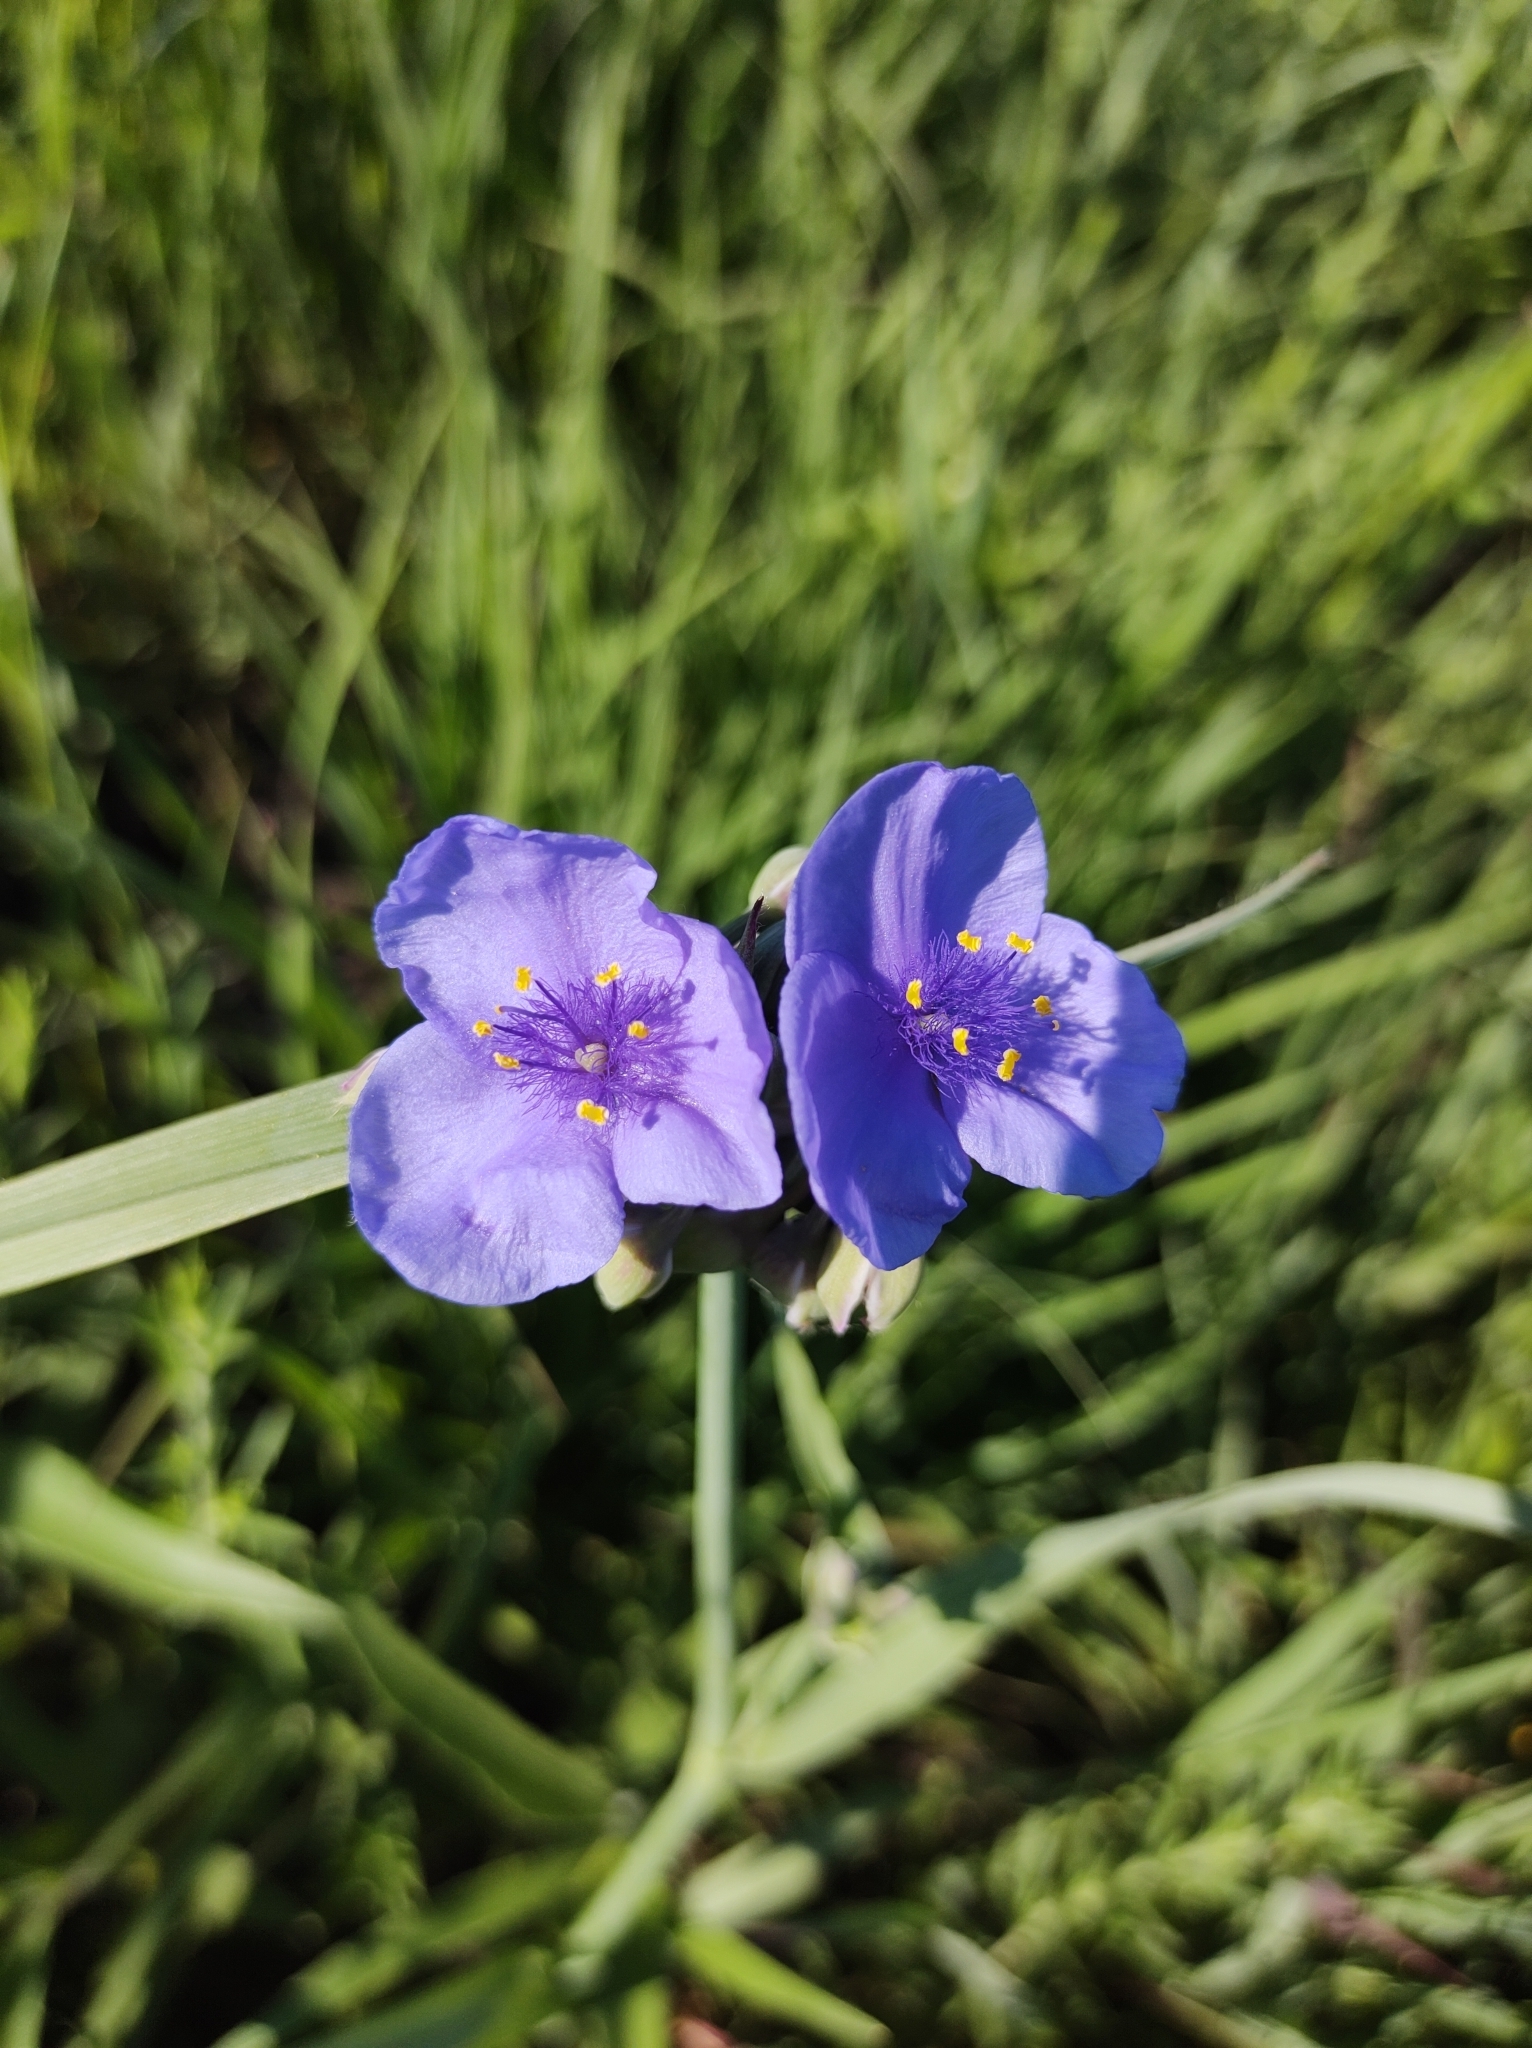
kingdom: Plantae
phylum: Tracheophyta
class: Liliopsida
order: Commelinales
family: Commelinaceae
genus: Tradescantia
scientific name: Tradescantia ohiensis
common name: Ohio spiderwort
